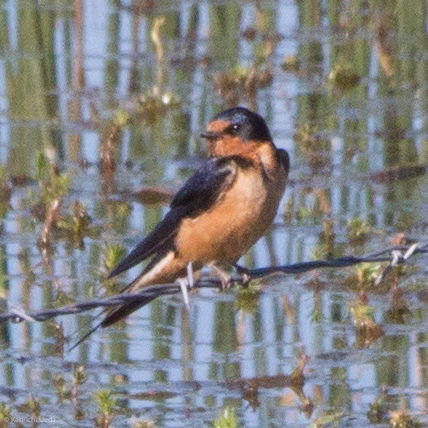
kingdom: Animalia
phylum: Chordata
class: Aves
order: Passeriformes
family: Hirundinidae
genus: Hirundo
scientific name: Hirundo rustica
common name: Barn swallow
